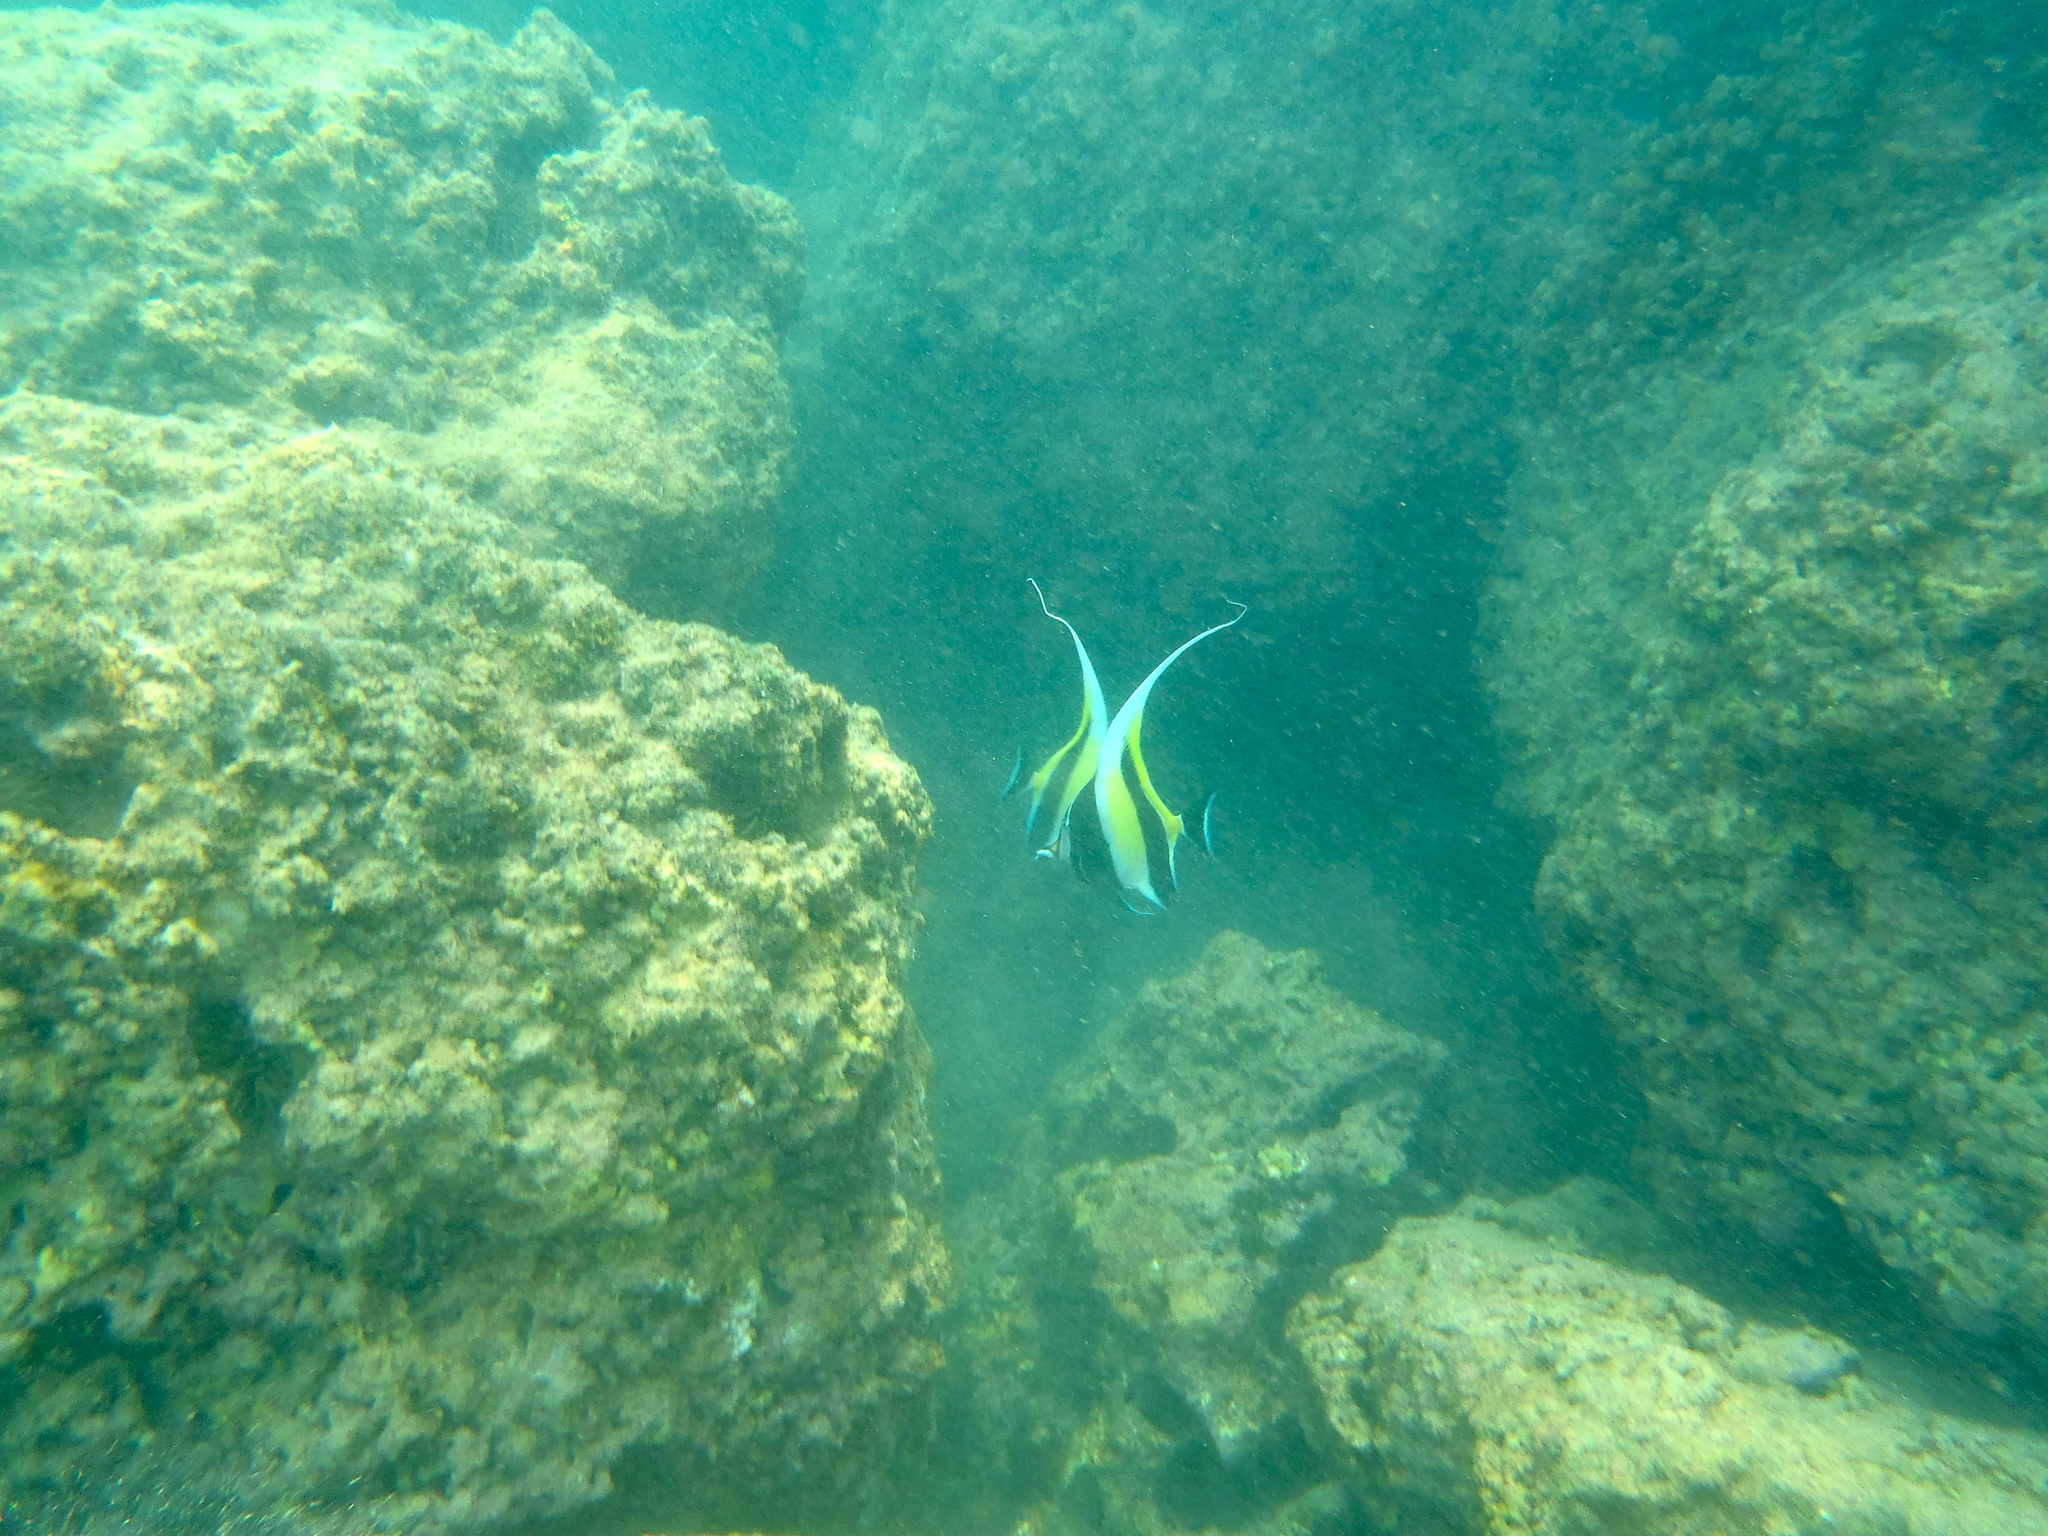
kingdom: Animalia
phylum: Chordata
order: Perciformes
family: Zanclidae
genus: Zanclus
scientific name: Zanclus cornutus
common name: Moorish idol
